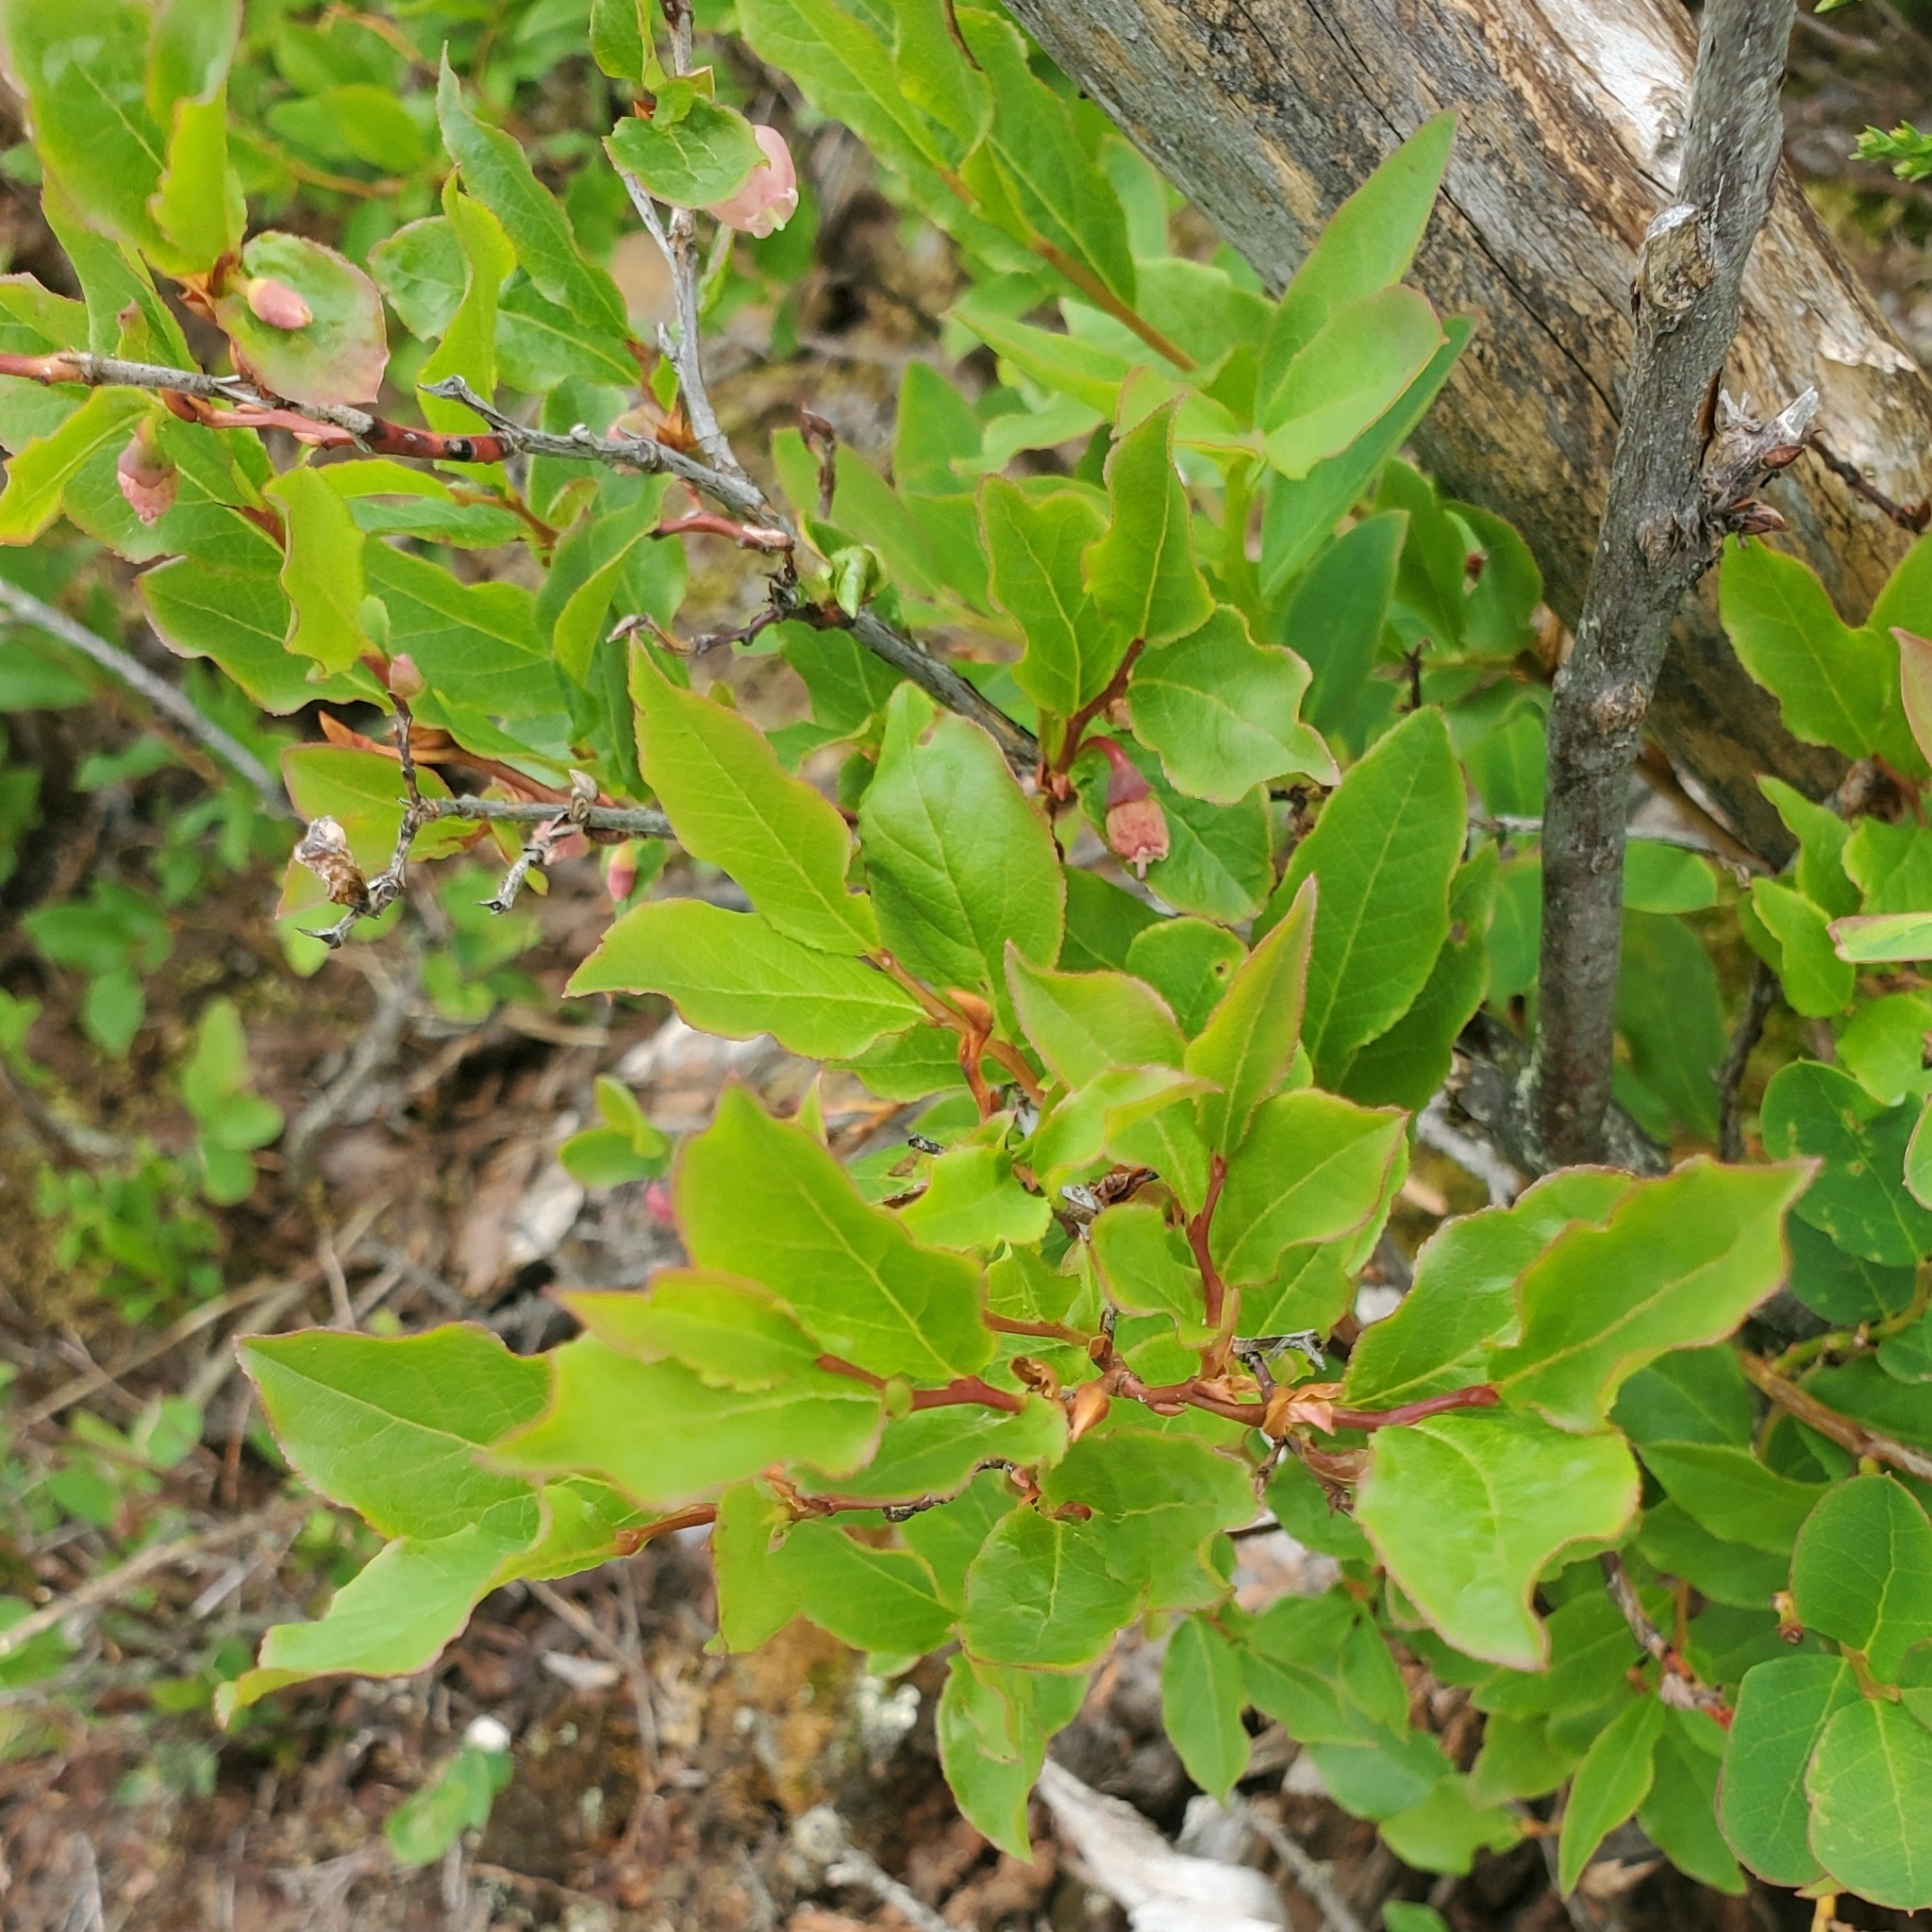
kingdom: Plantae
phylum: Tracheophyta
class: Magnoliopsida
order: Ericales
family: Ericaceae
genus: Vaccinium
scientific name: Vaccinium membranaceum
